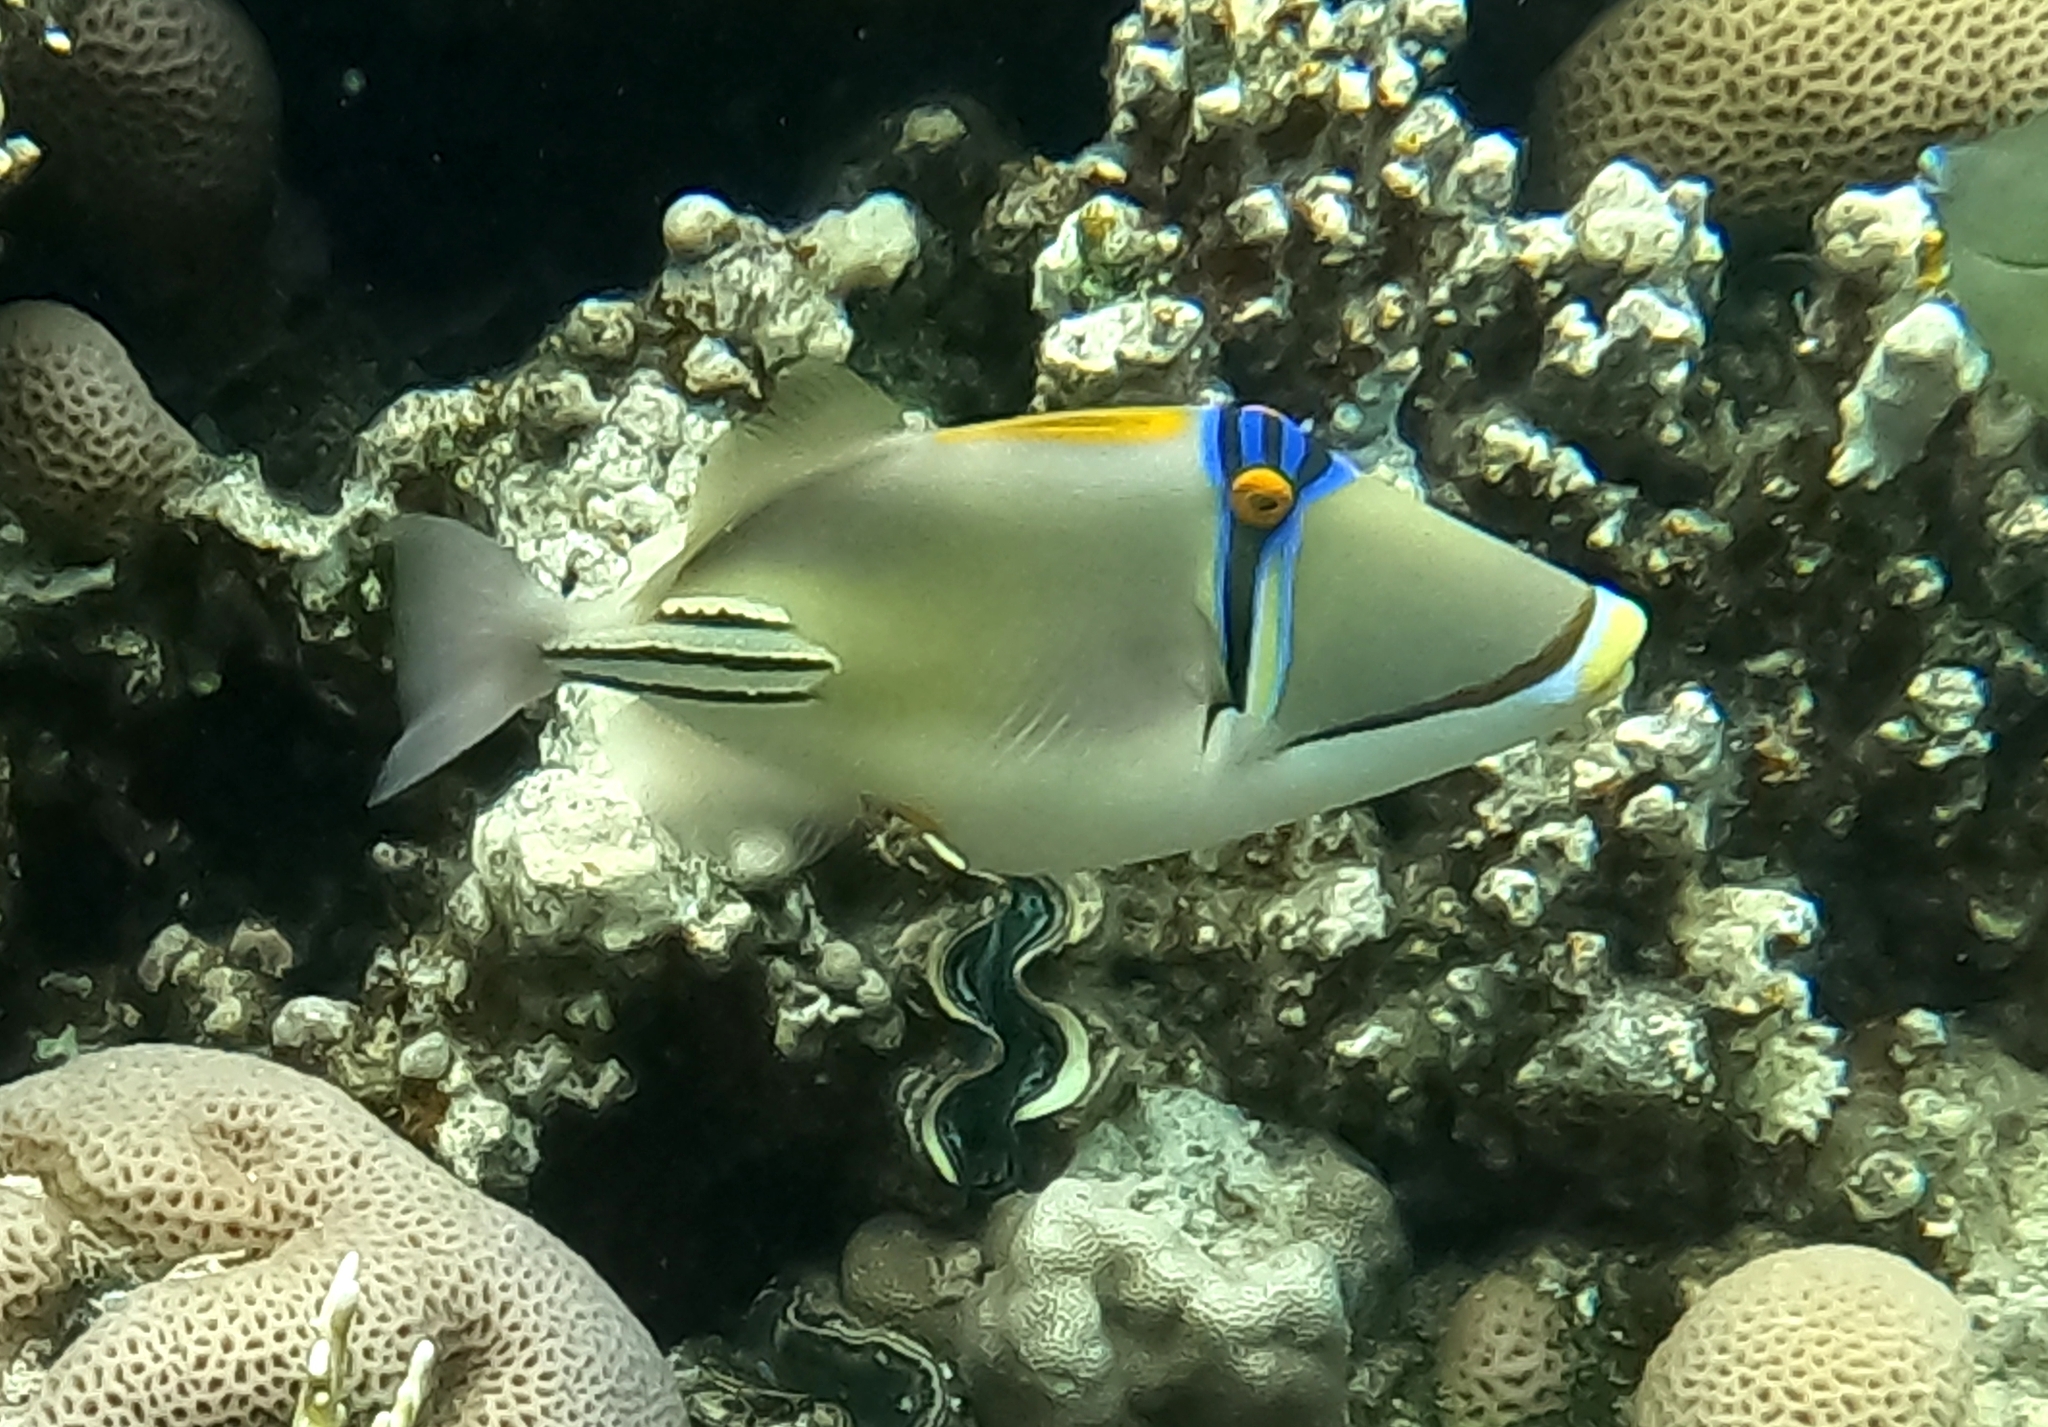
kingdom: Animalia
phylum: Chordata
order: Tetraodontiformes
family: Balistidae
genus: Rhinecanthus
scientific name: Rhinecanthus assasi
